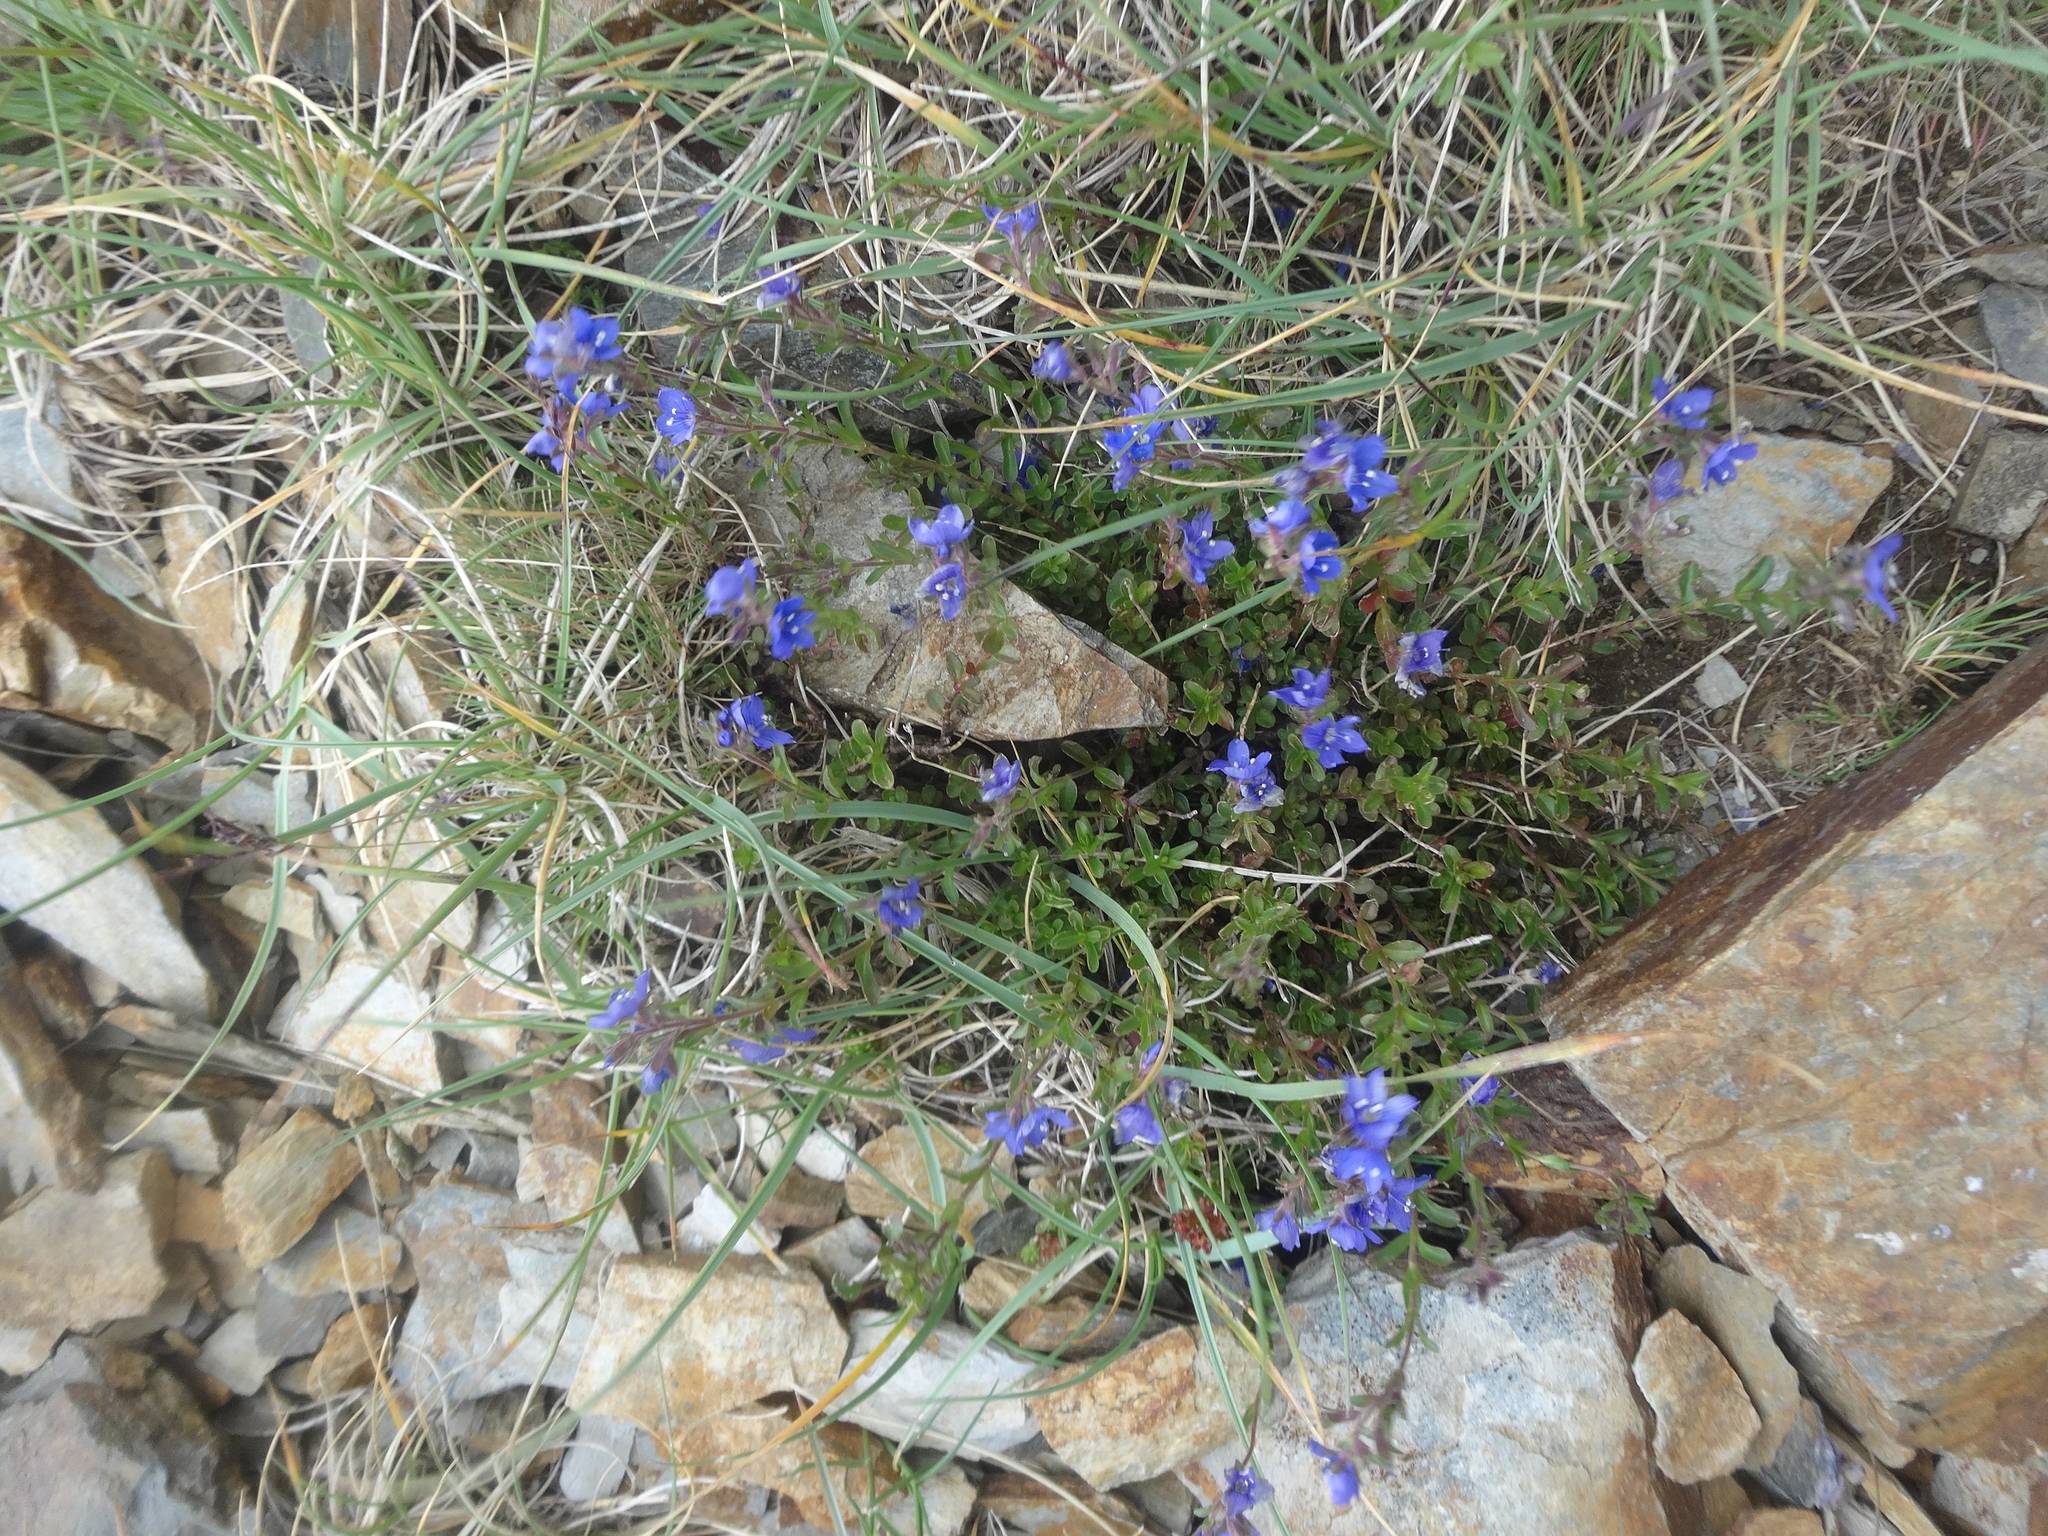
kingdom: Plantae
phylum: Tracheophyta
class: Magnoliopsida
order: Lamiales
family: Plantaginaceae
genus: Veronica
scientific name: Veronica fruticans
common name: Rock speedwell
